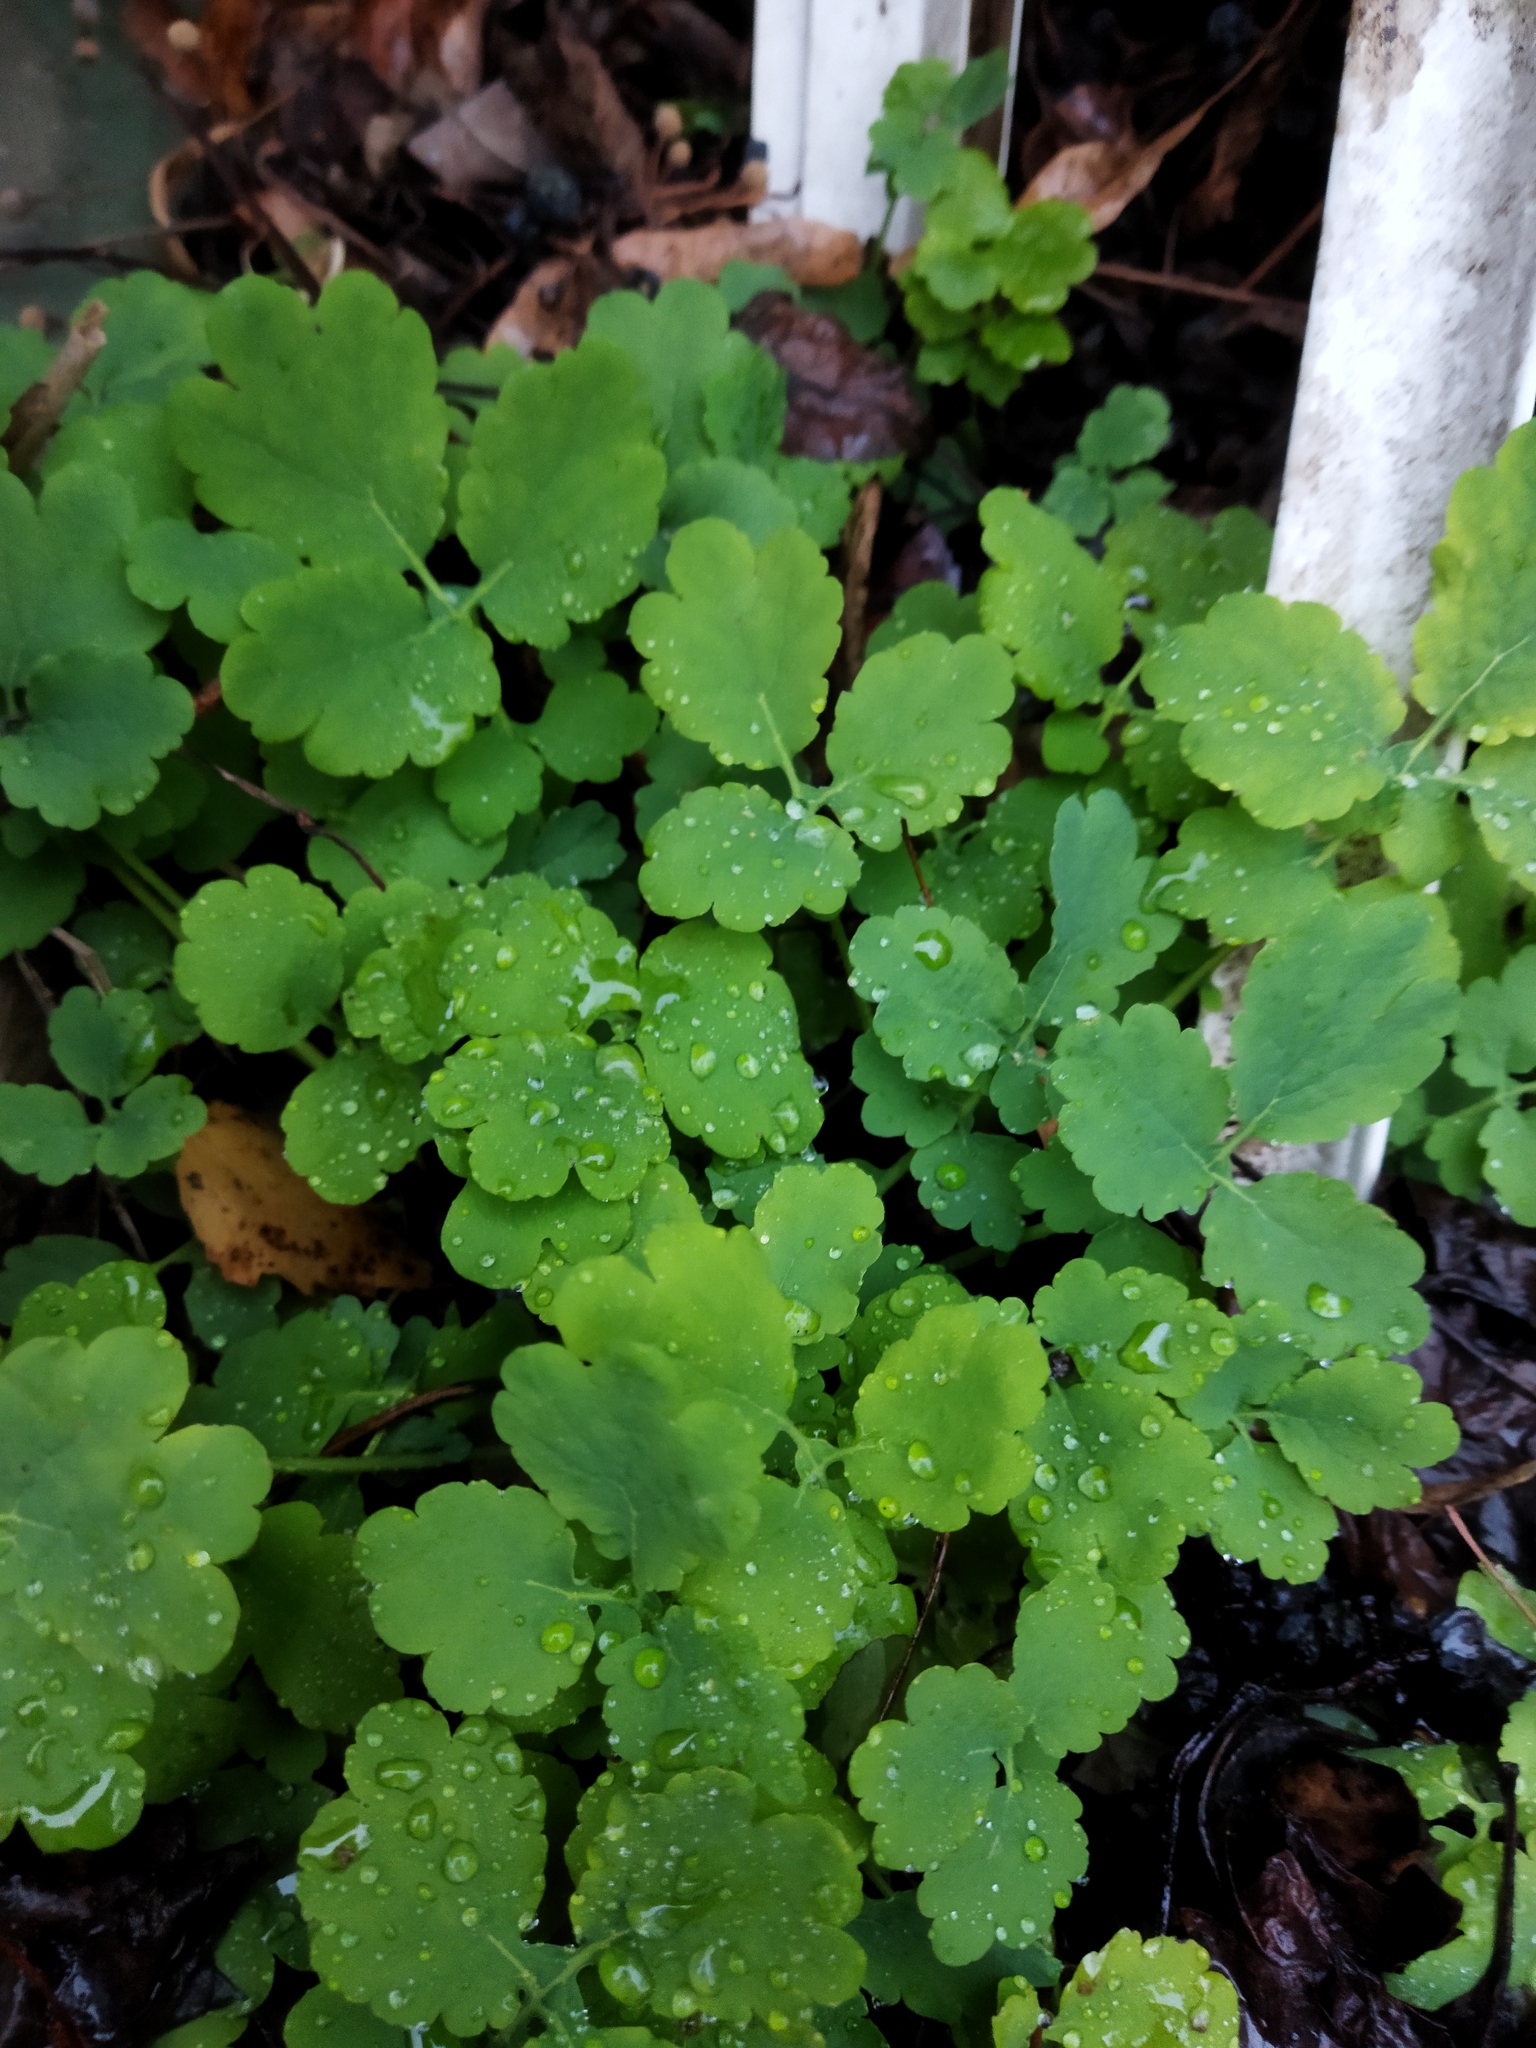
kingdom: Plantae
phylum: Tracheophyta
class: Magnoliopsida
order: Ranunculales
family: Papaveraceae
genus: Chelidonium
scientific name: Chelidonium majus
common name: Greater celandine
